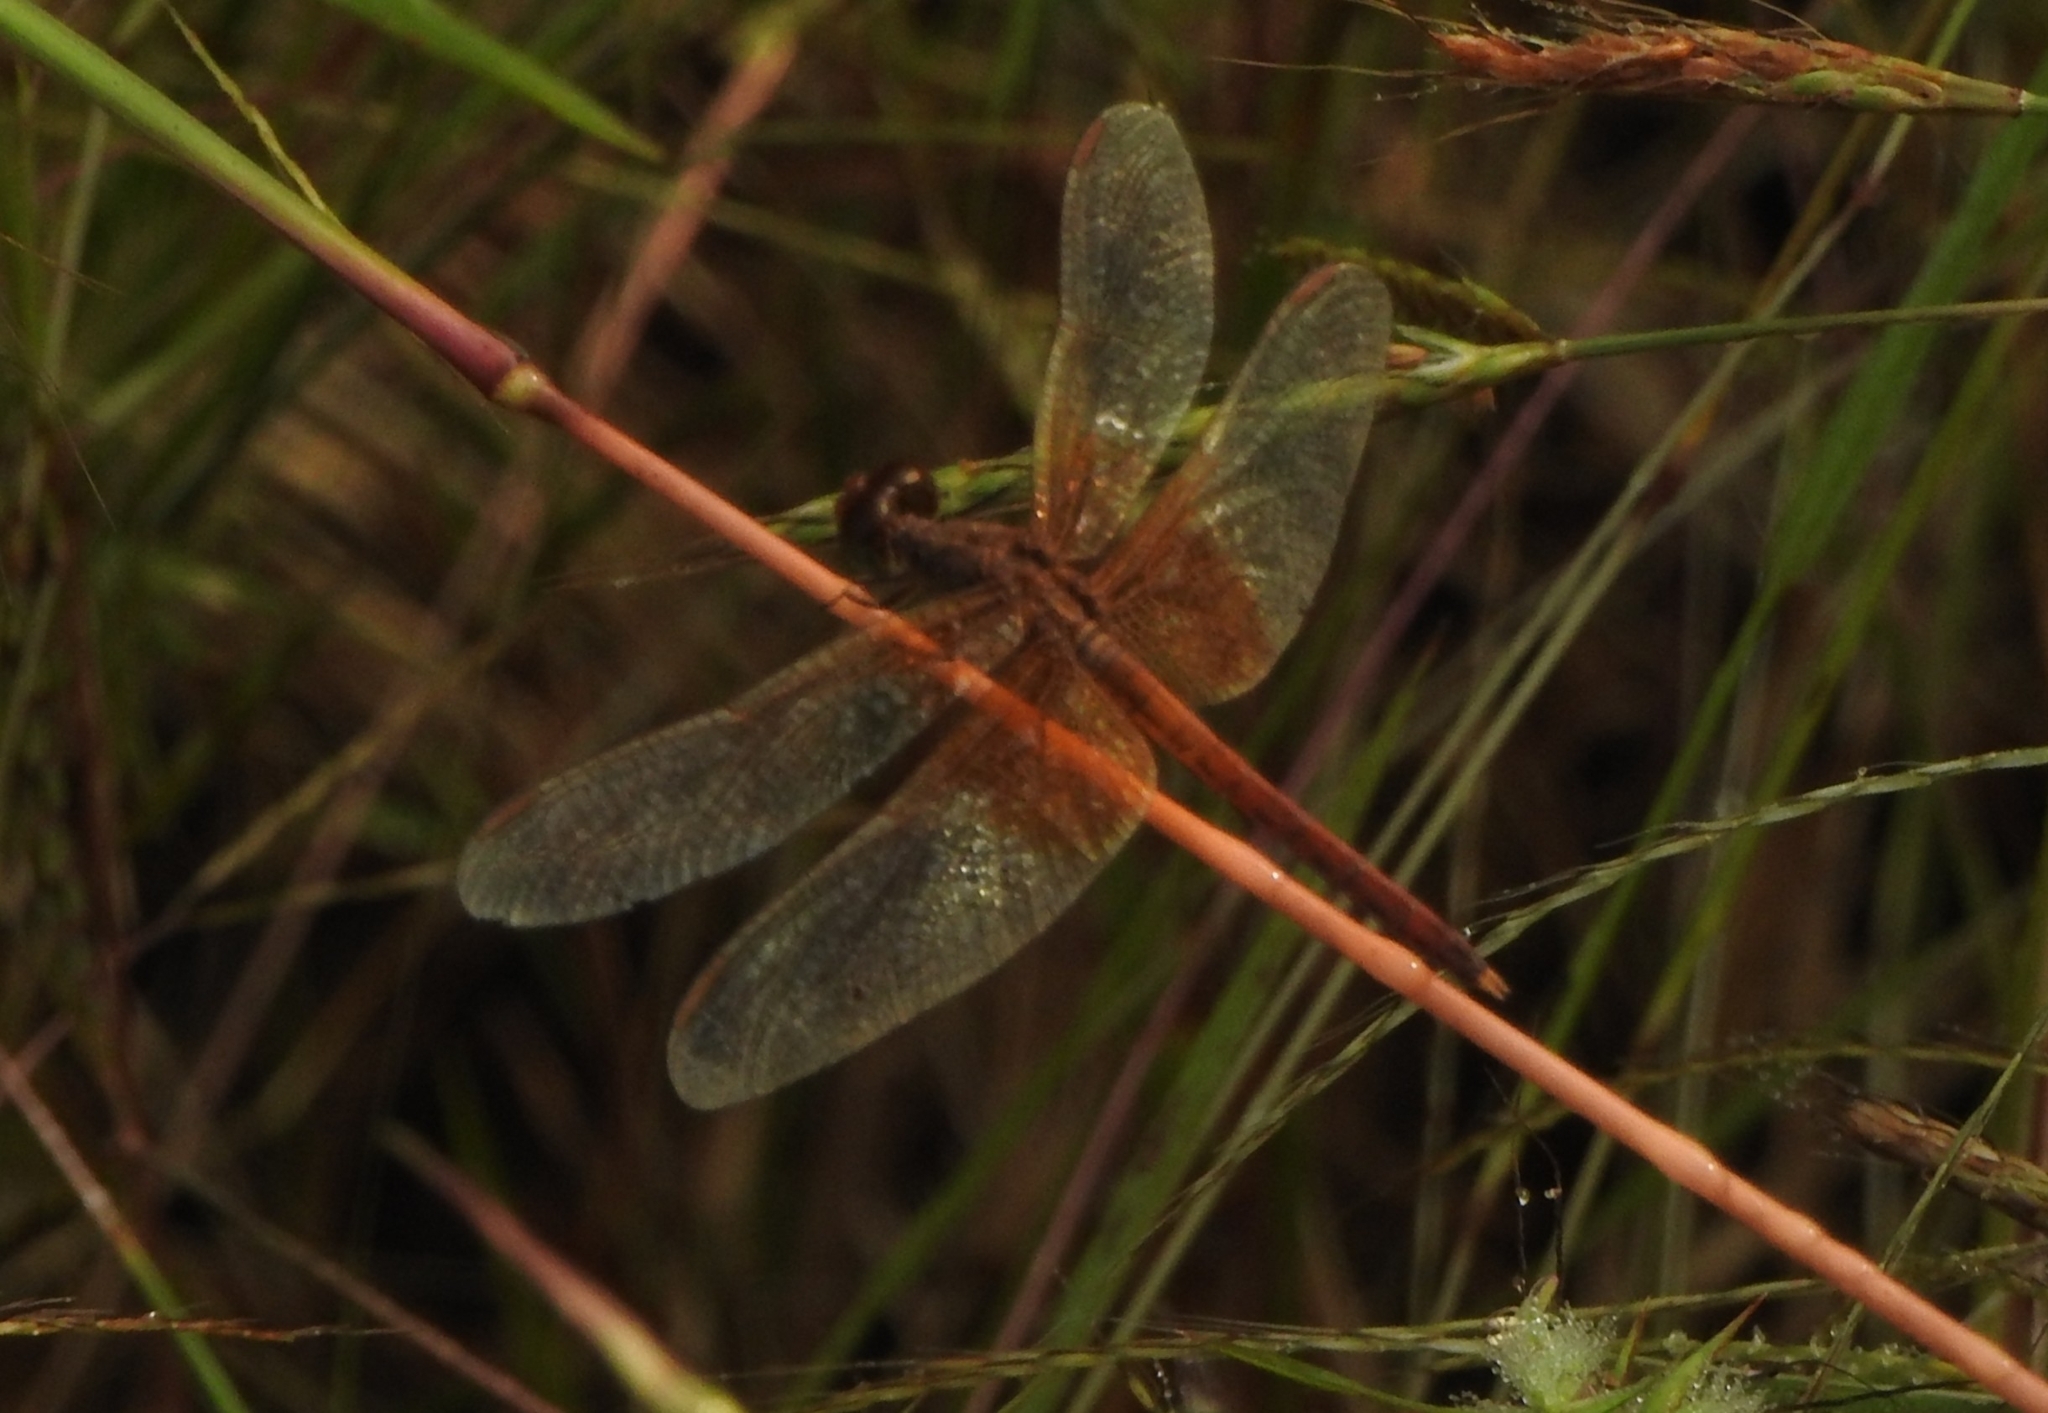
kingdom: Animalia
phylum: Arthropoda
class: Insecta
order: Odonata
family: Libellulidae
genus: Neurothemis
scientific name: Neurothemis intermedia
